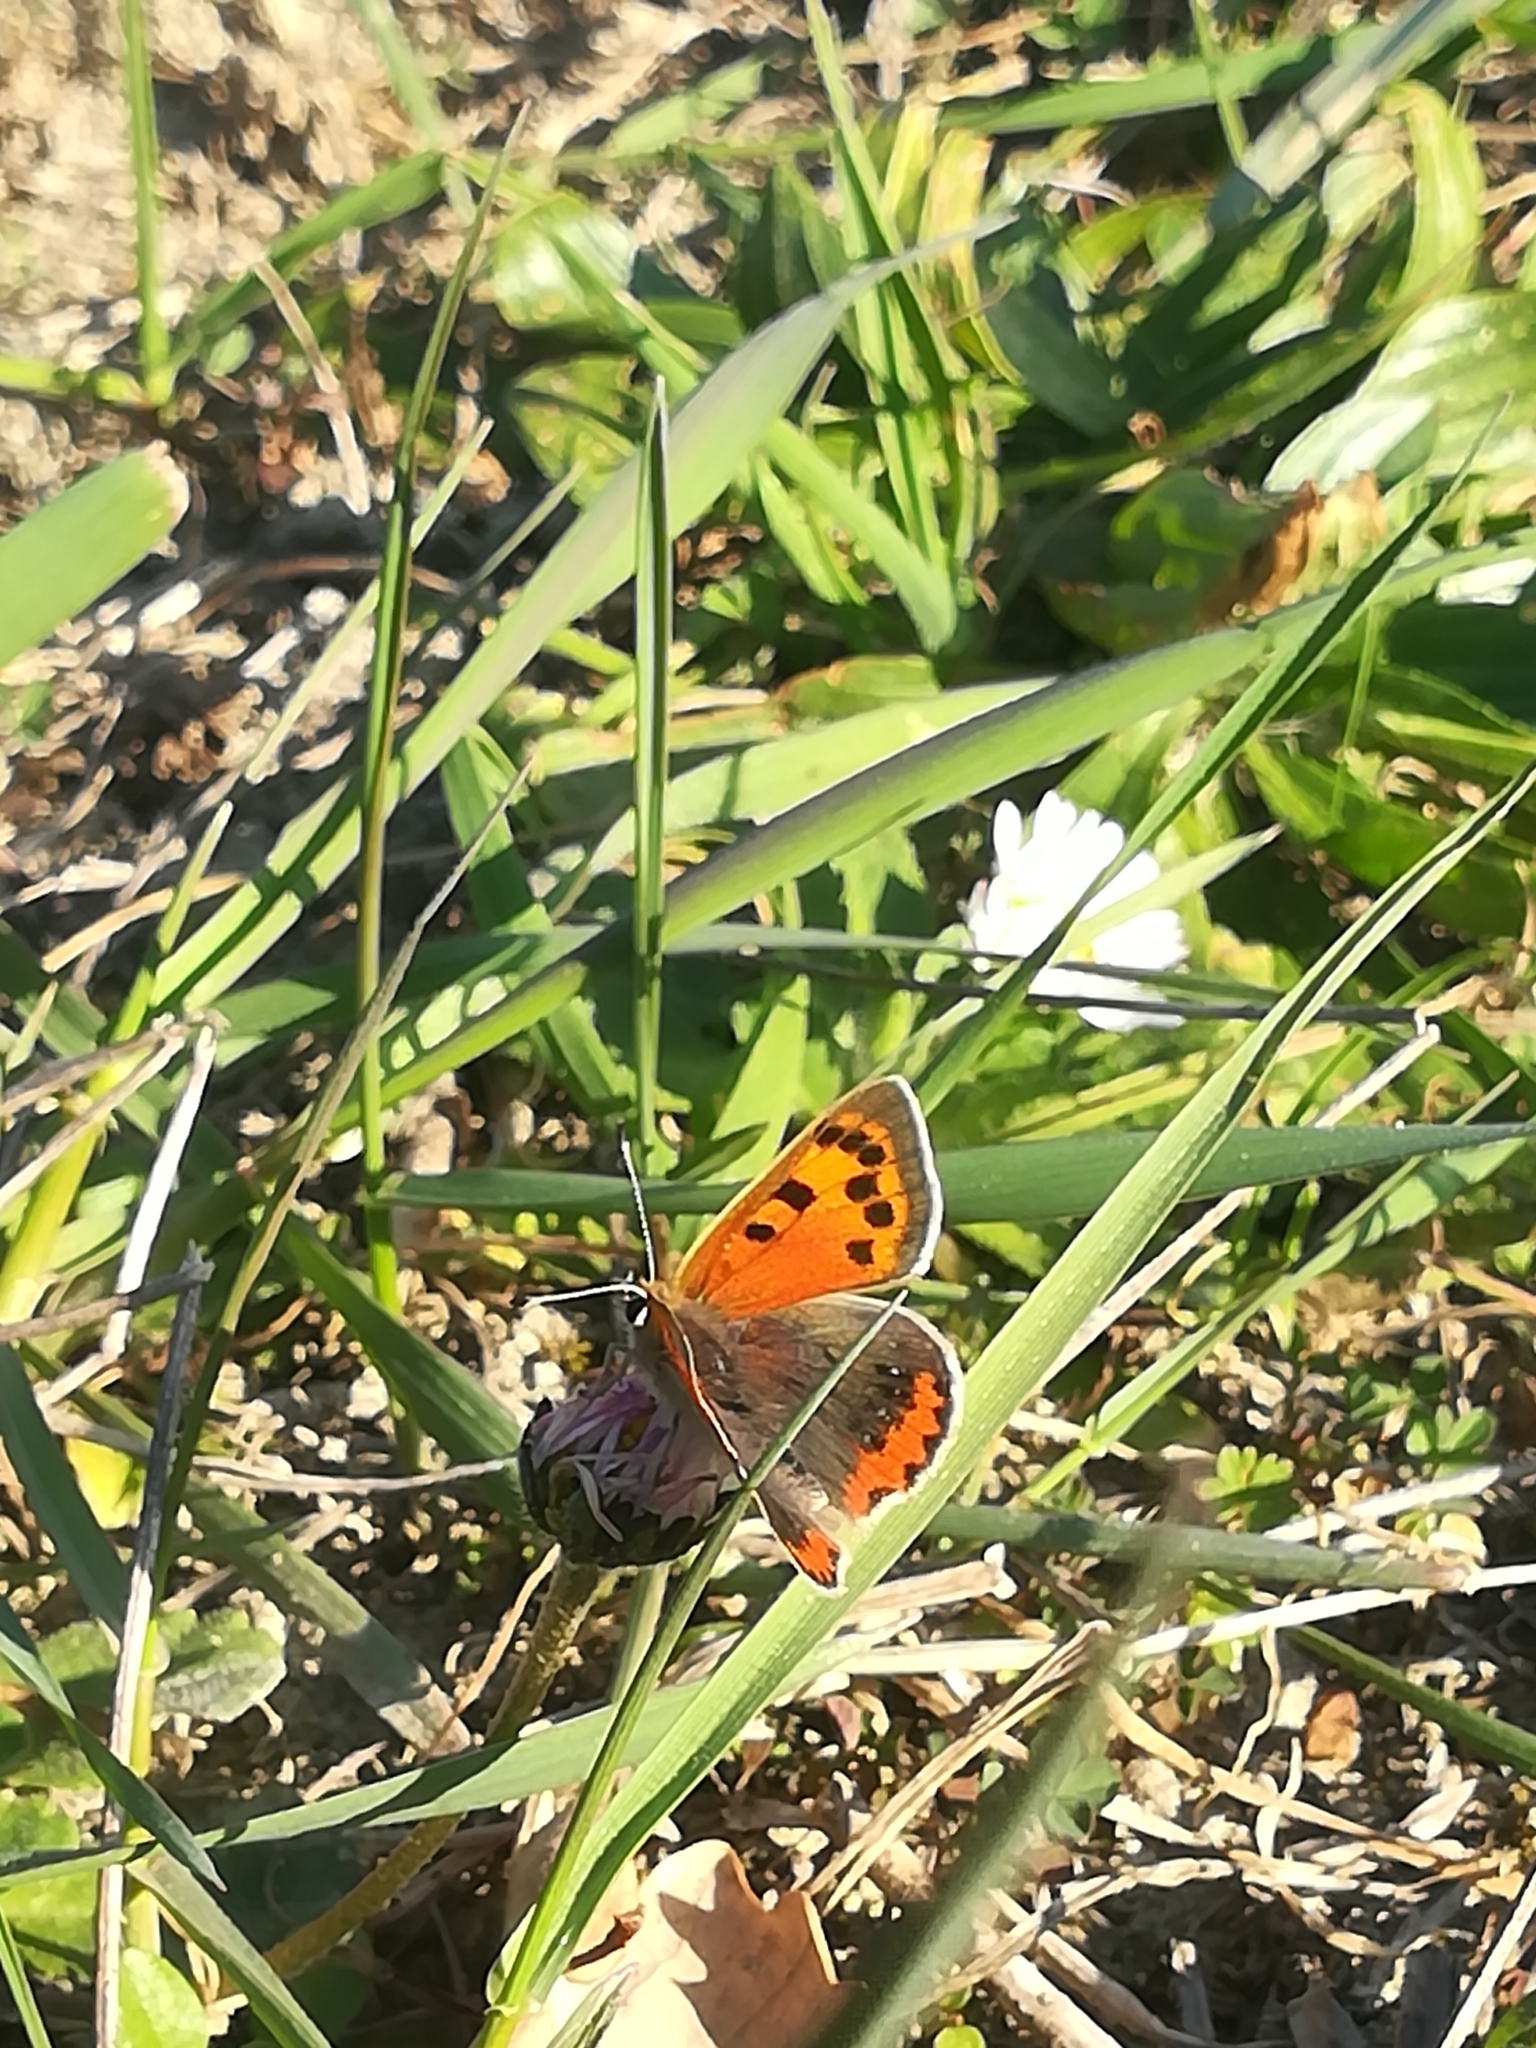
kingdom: Animalia
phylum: Arthropoda
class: Insecta
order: Lepidoptera
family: Lycaenidae
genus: Lycaena
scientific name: Lycaena phlaeas
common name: Small copper
